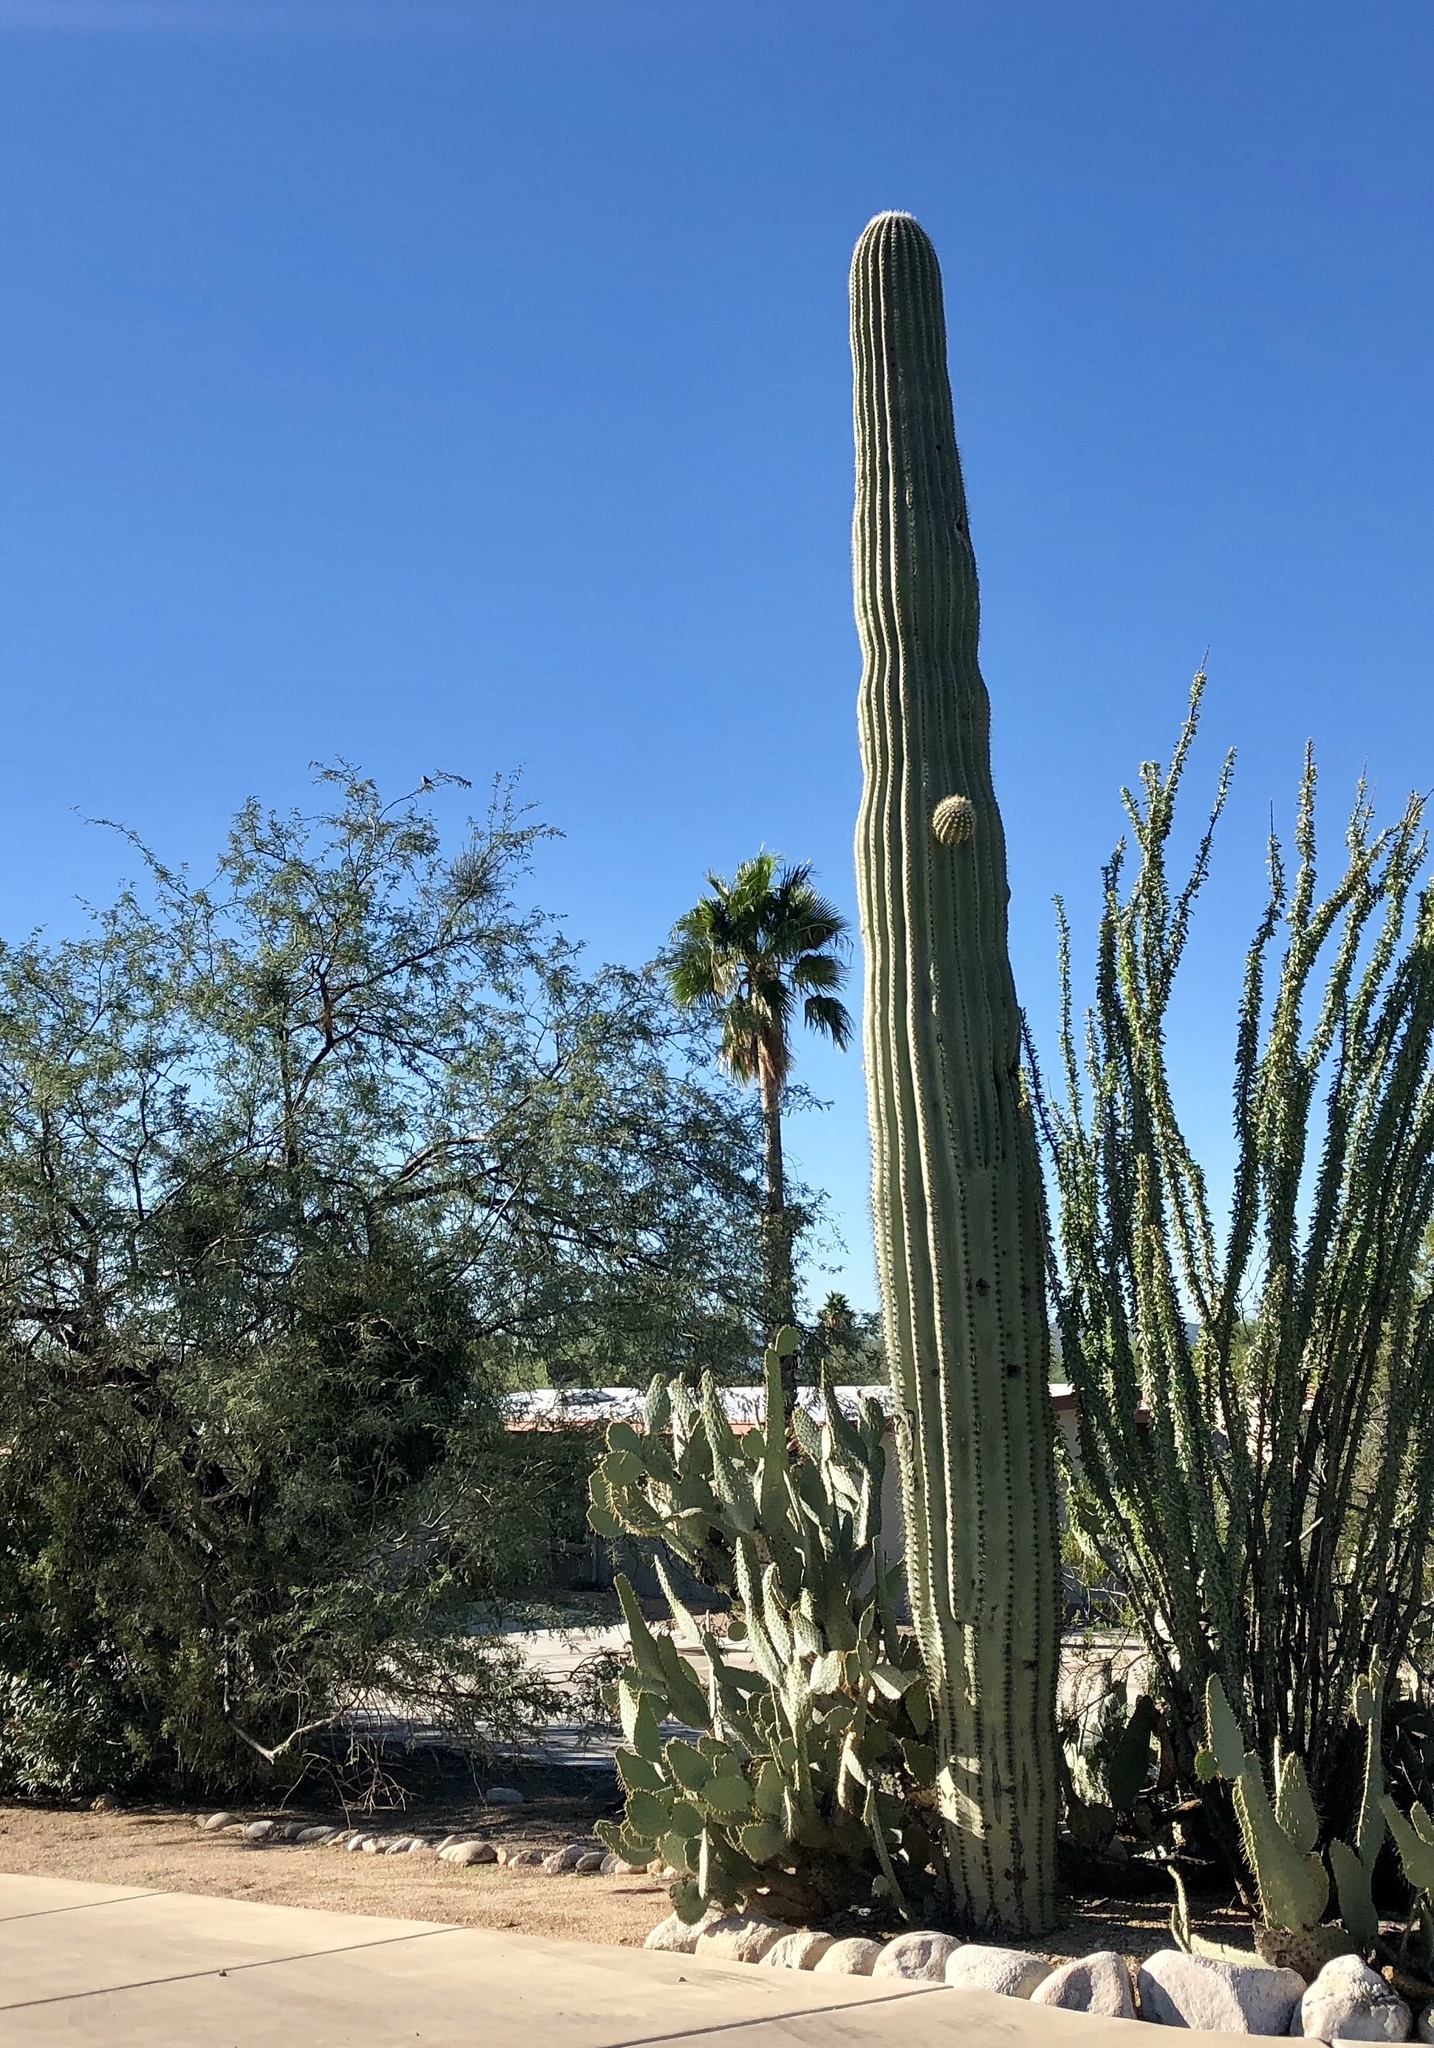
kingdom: Plantae
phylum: Tracheophyta
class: Magnoliopsida
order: Caryophyllales
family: Cactaceae
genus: Carnegiea
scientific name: Carnegiea gigantea
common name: Saguaro
